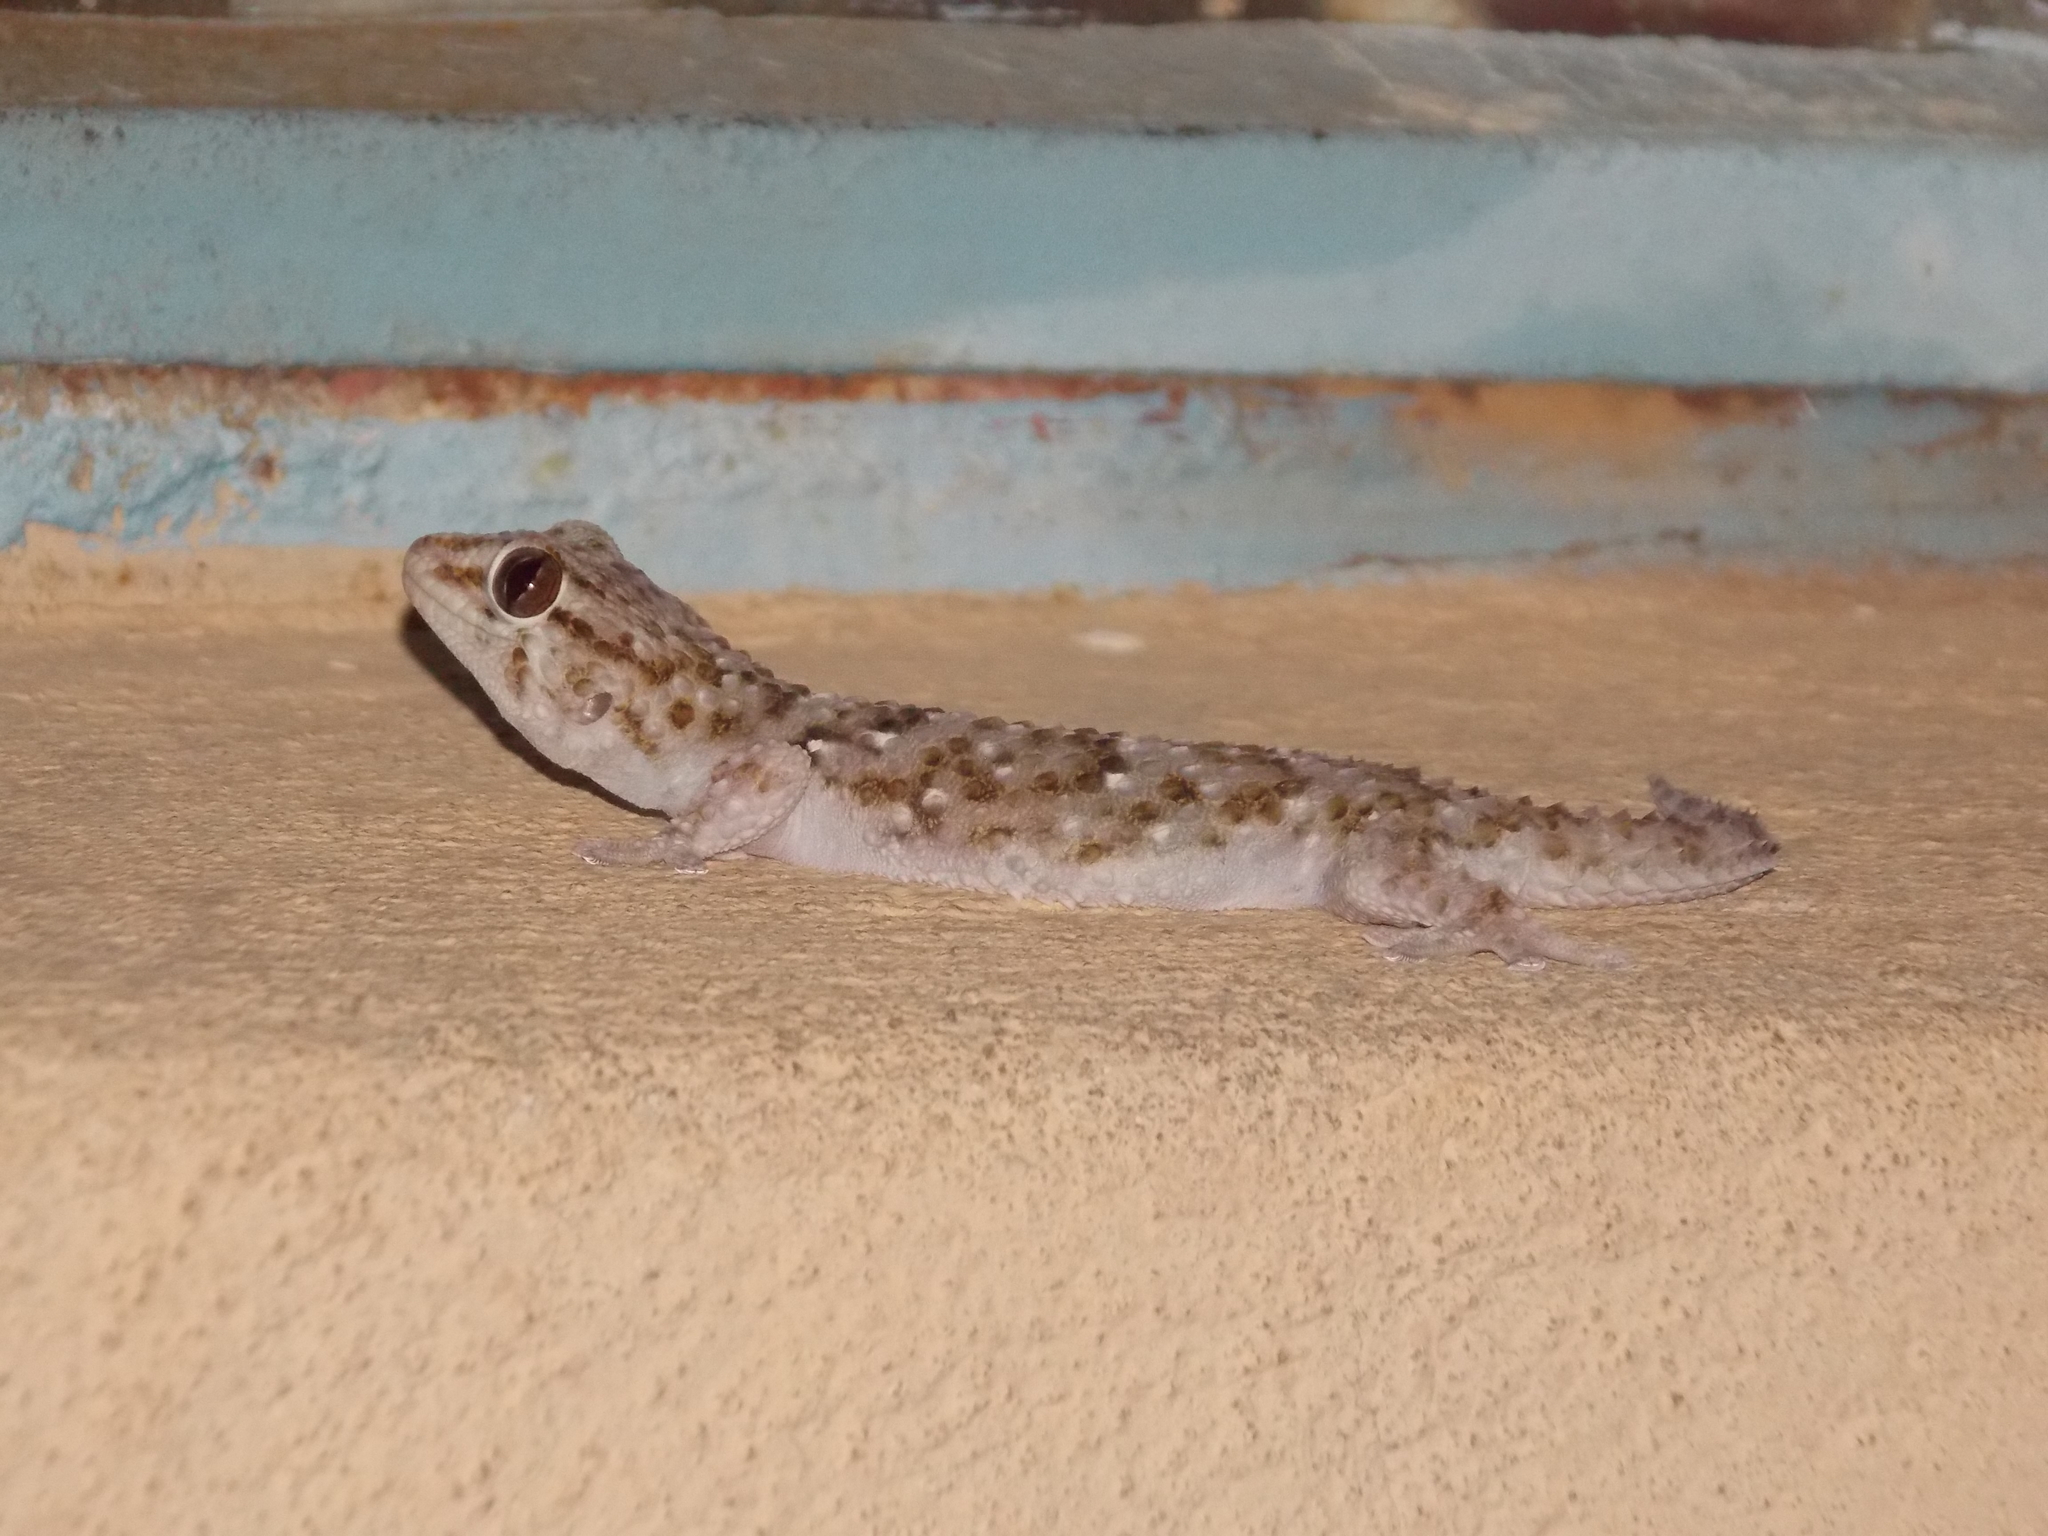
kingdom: Animalia
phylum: Chordata
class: Squamata
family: Gekkonidae
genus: Chondrodactylus
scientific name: Chondrodactylus bibronii
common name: Bibron's gecko
